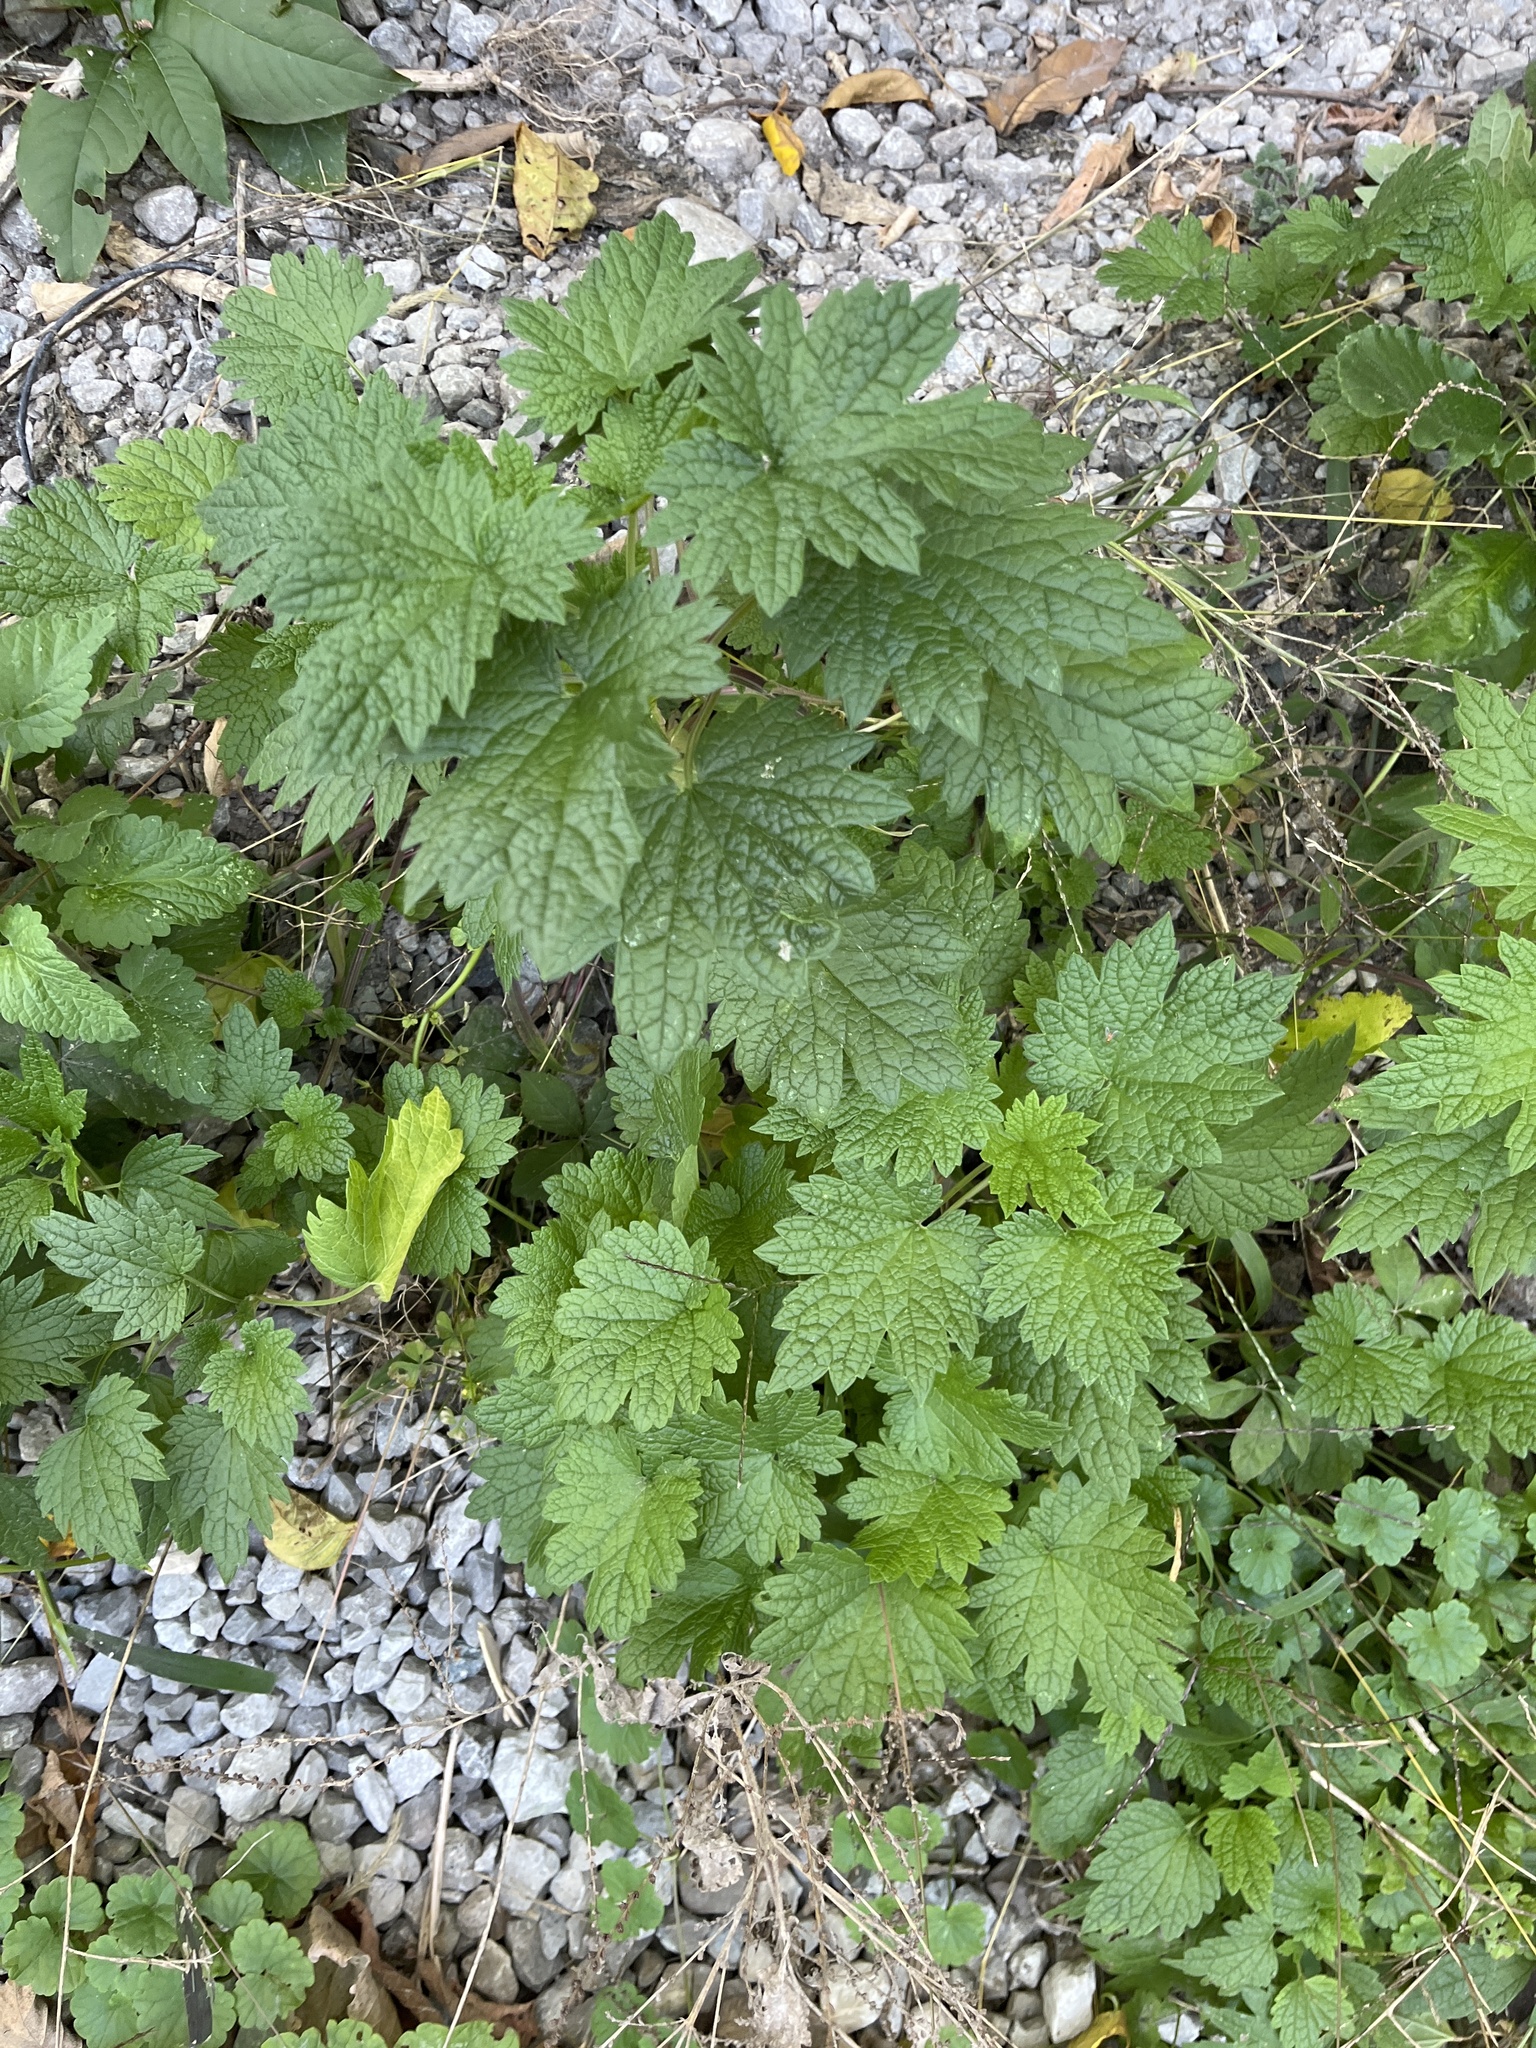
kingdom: Plantae
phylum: Tracheophyta
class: Magnoliopsida
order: Lamiales
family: Lamiaceae
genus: Leonurus
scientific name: Leonurus cardiaca
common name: Motherwort
